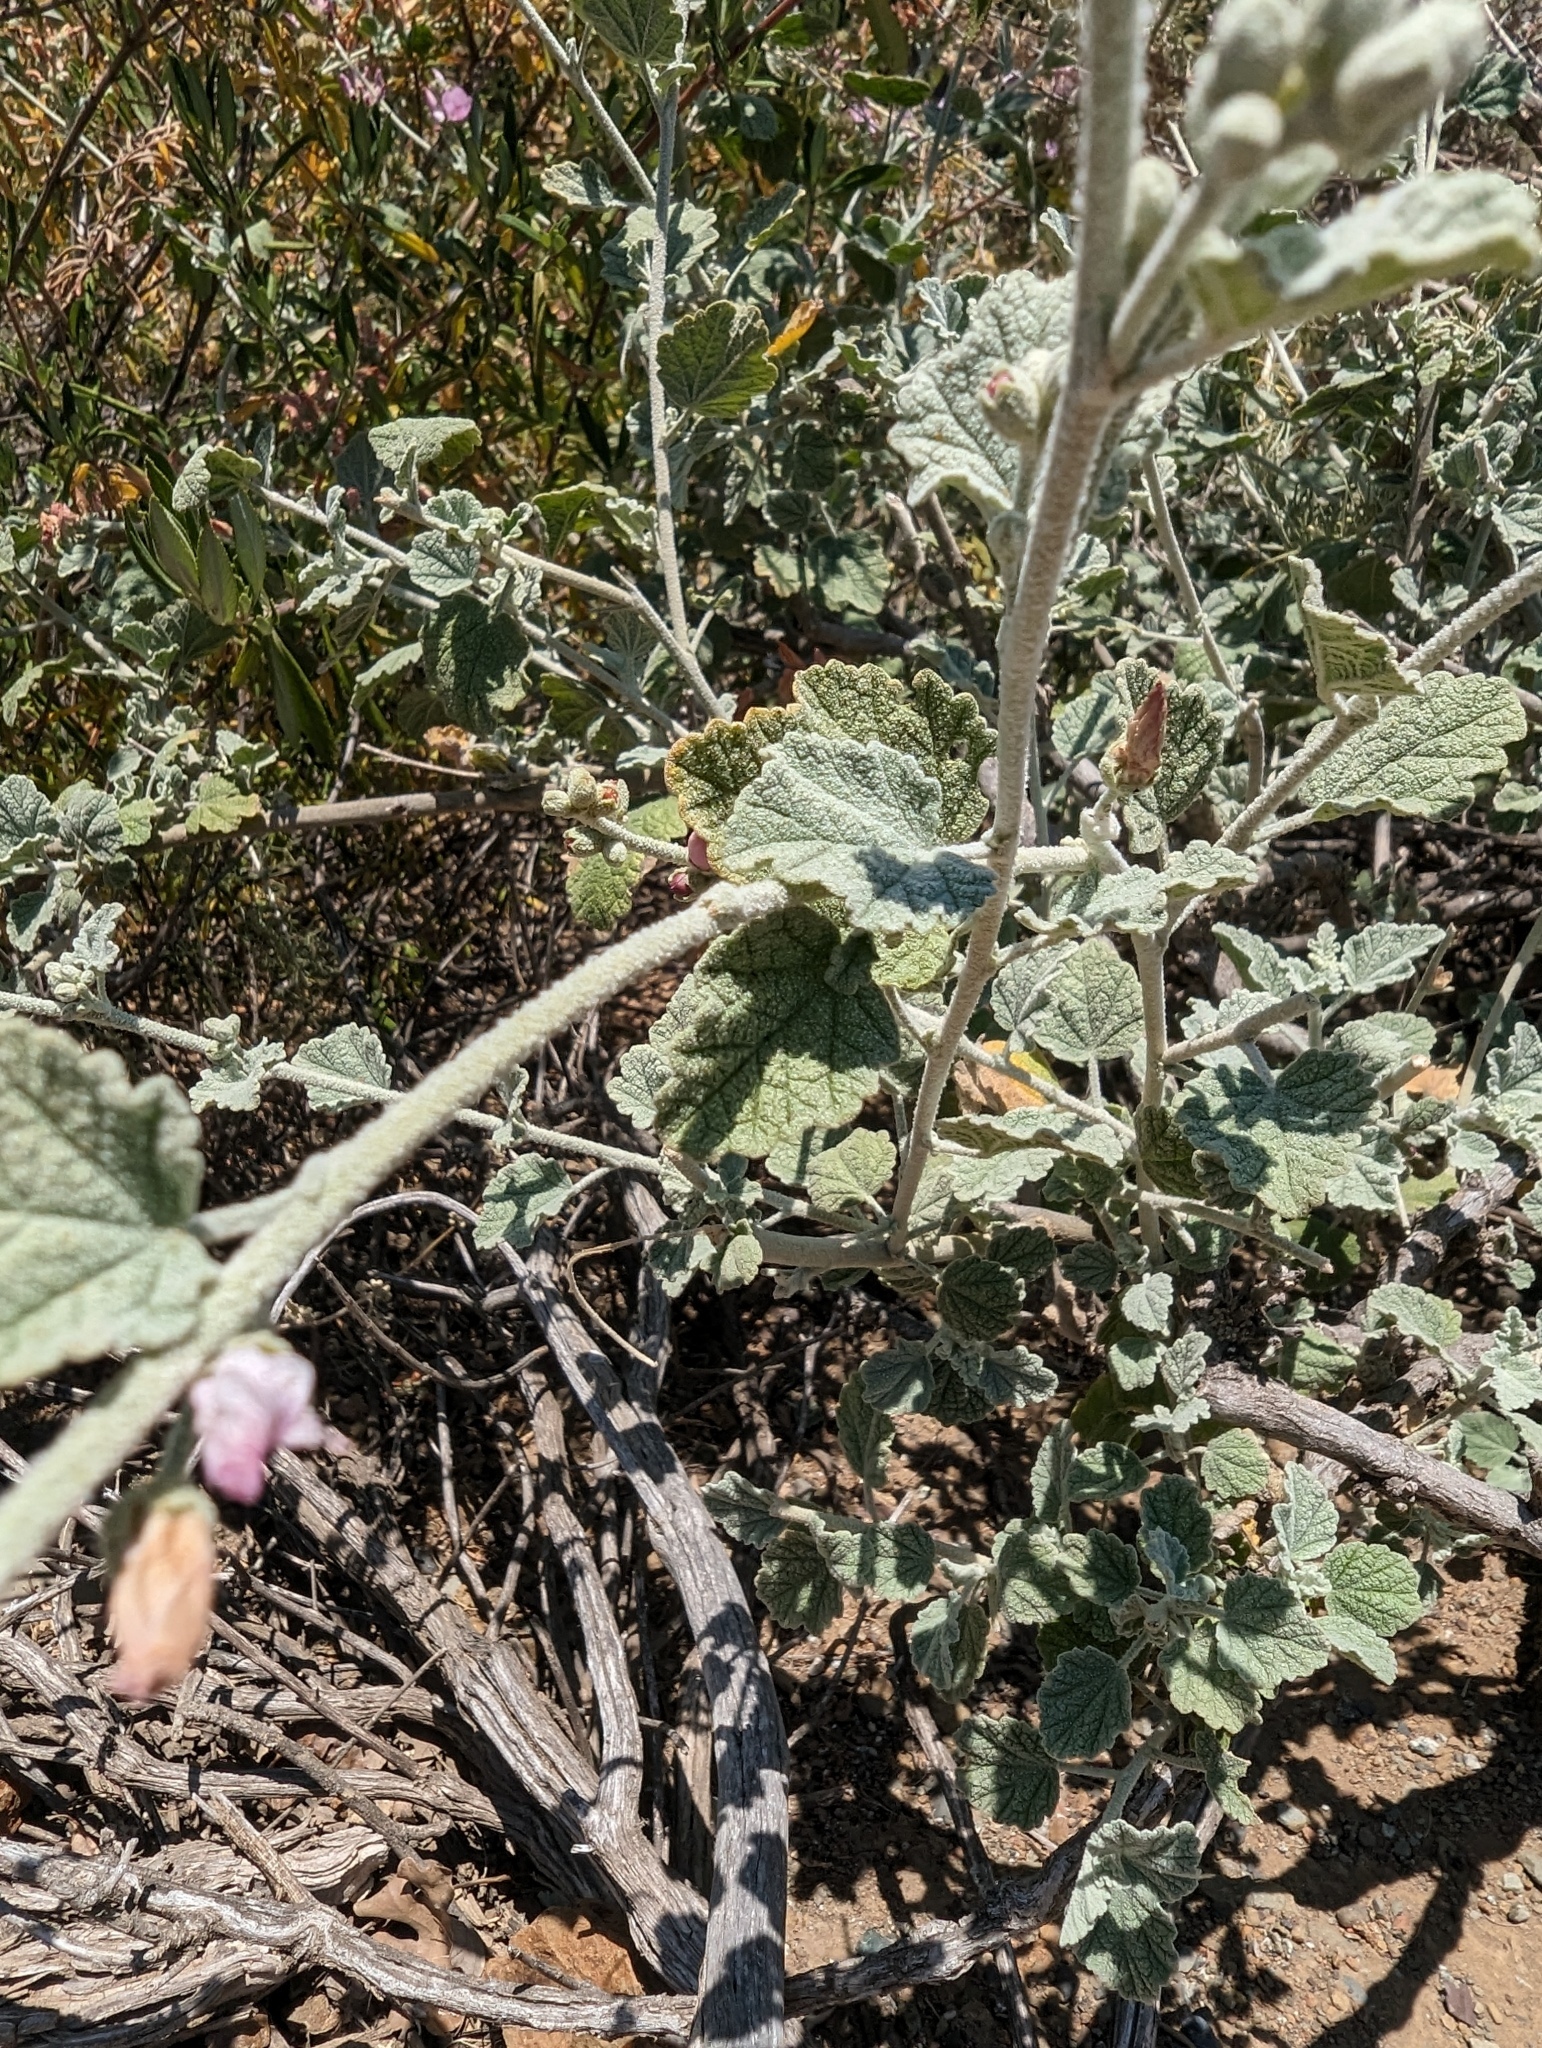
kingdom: Plantae
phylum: Tracheophyta
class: Magnoliopsida
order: Malvales
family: Malvaceae
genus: Malacothamnus
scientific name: Malacothamnus fasciculatus
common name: Sant cruz island bush-mallow
